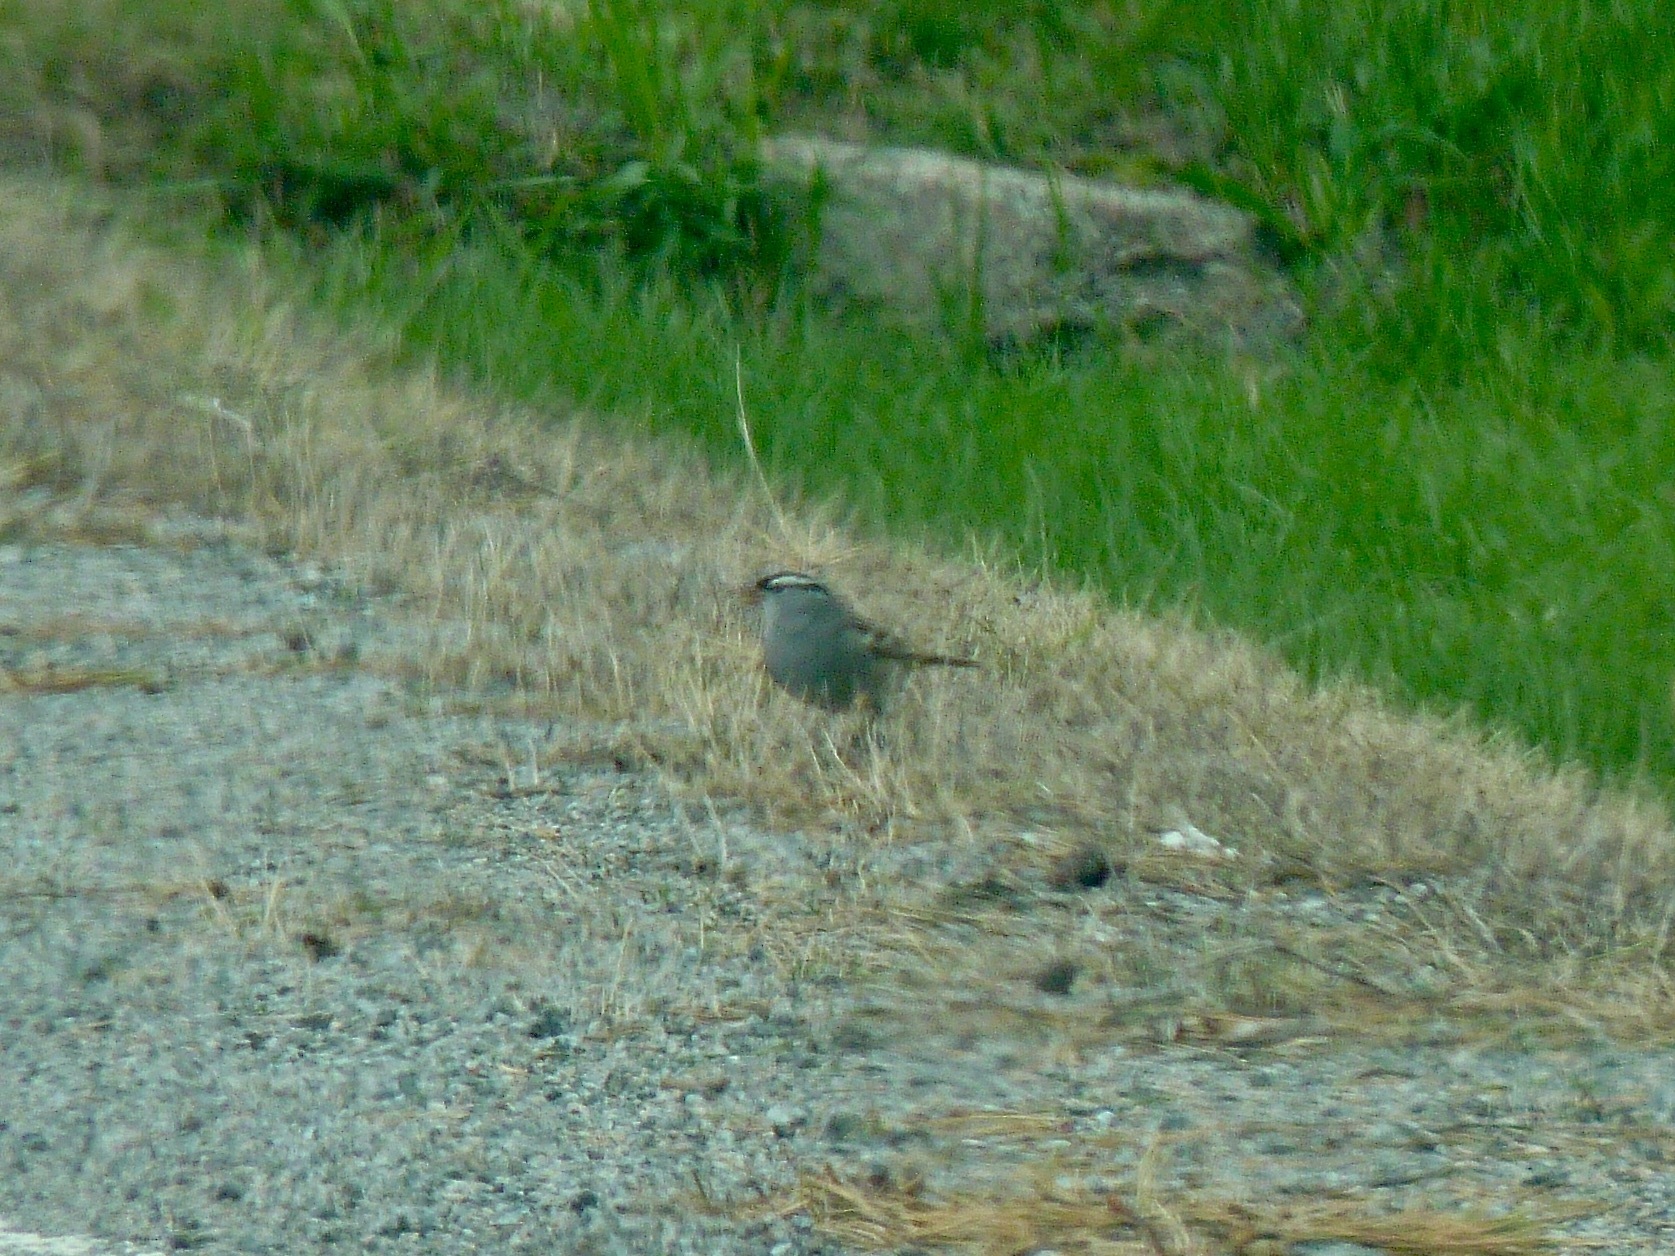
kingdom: Animalia
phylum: Chordata
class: Aves
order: Passeriformes
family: Passerellidae
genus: Zonotrichia
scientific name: Zonotrichia leucophrys
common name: White-crowned sparrow
